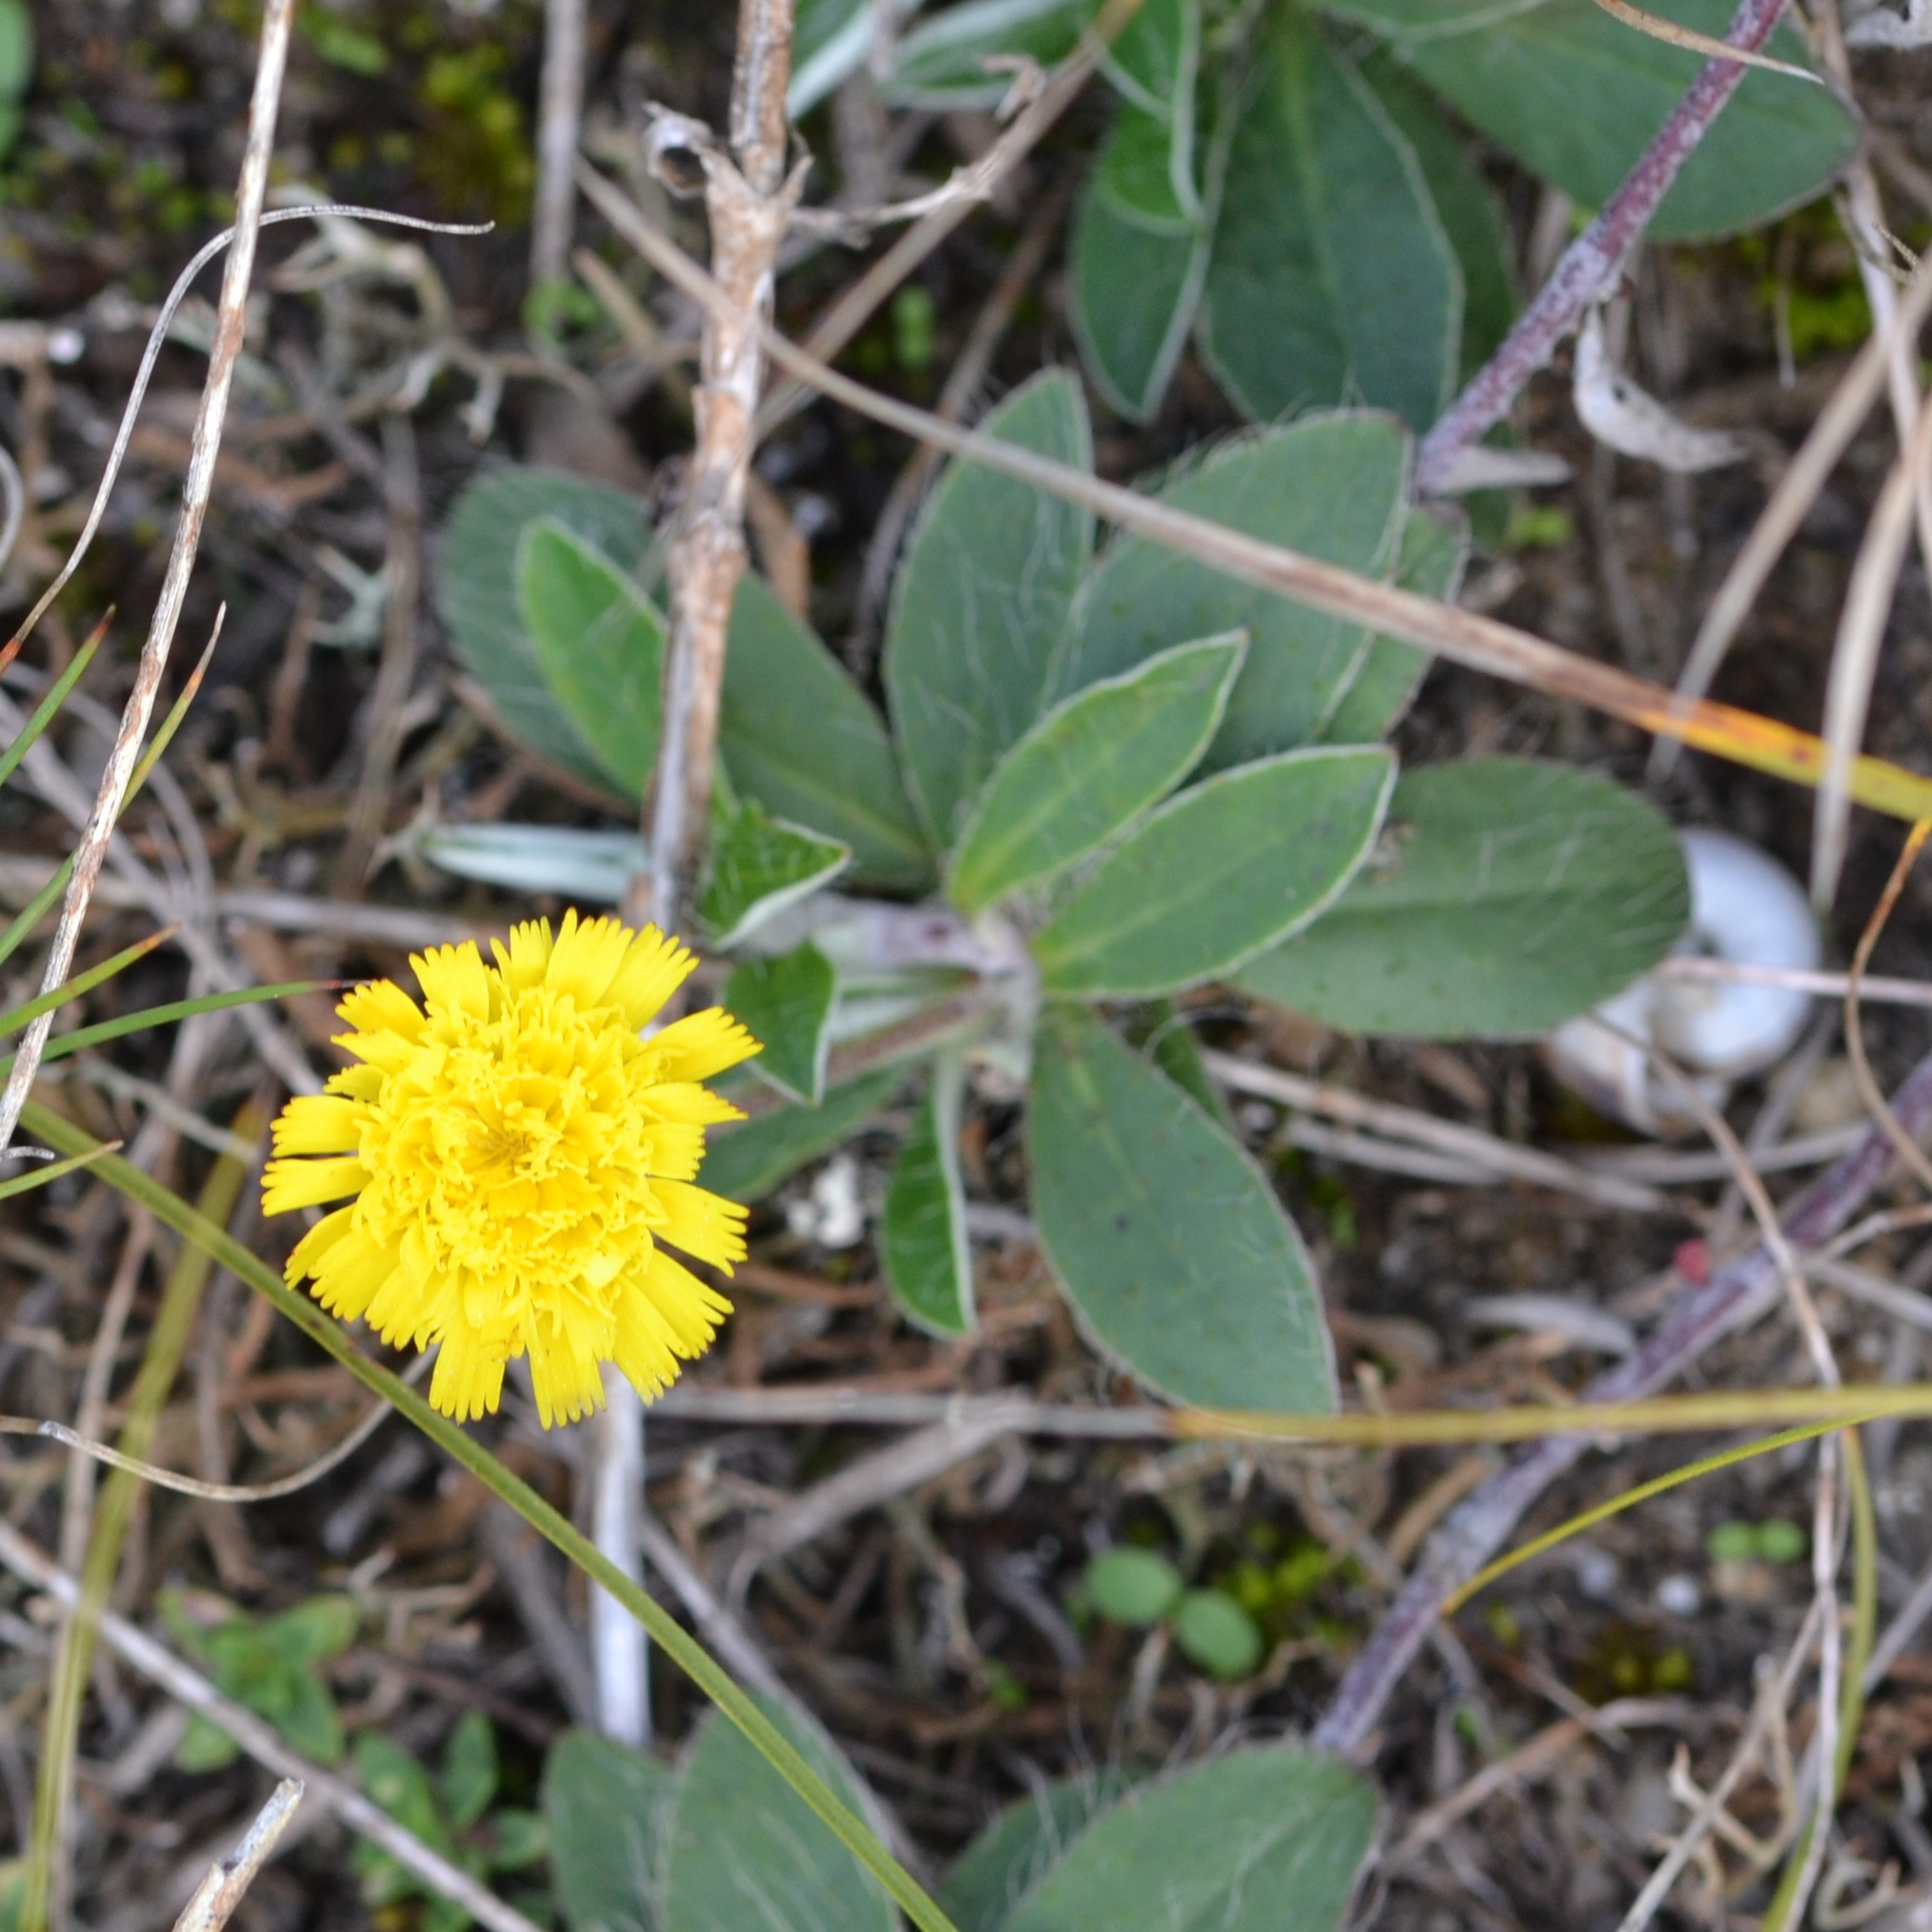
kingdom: Plantae
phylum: Tracheophyta
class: Magnoliopsida
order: Asterales
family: Asteraceae
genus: Pilosella
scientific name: Pilosella officinarum
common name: Mouse-ear hawkweed
